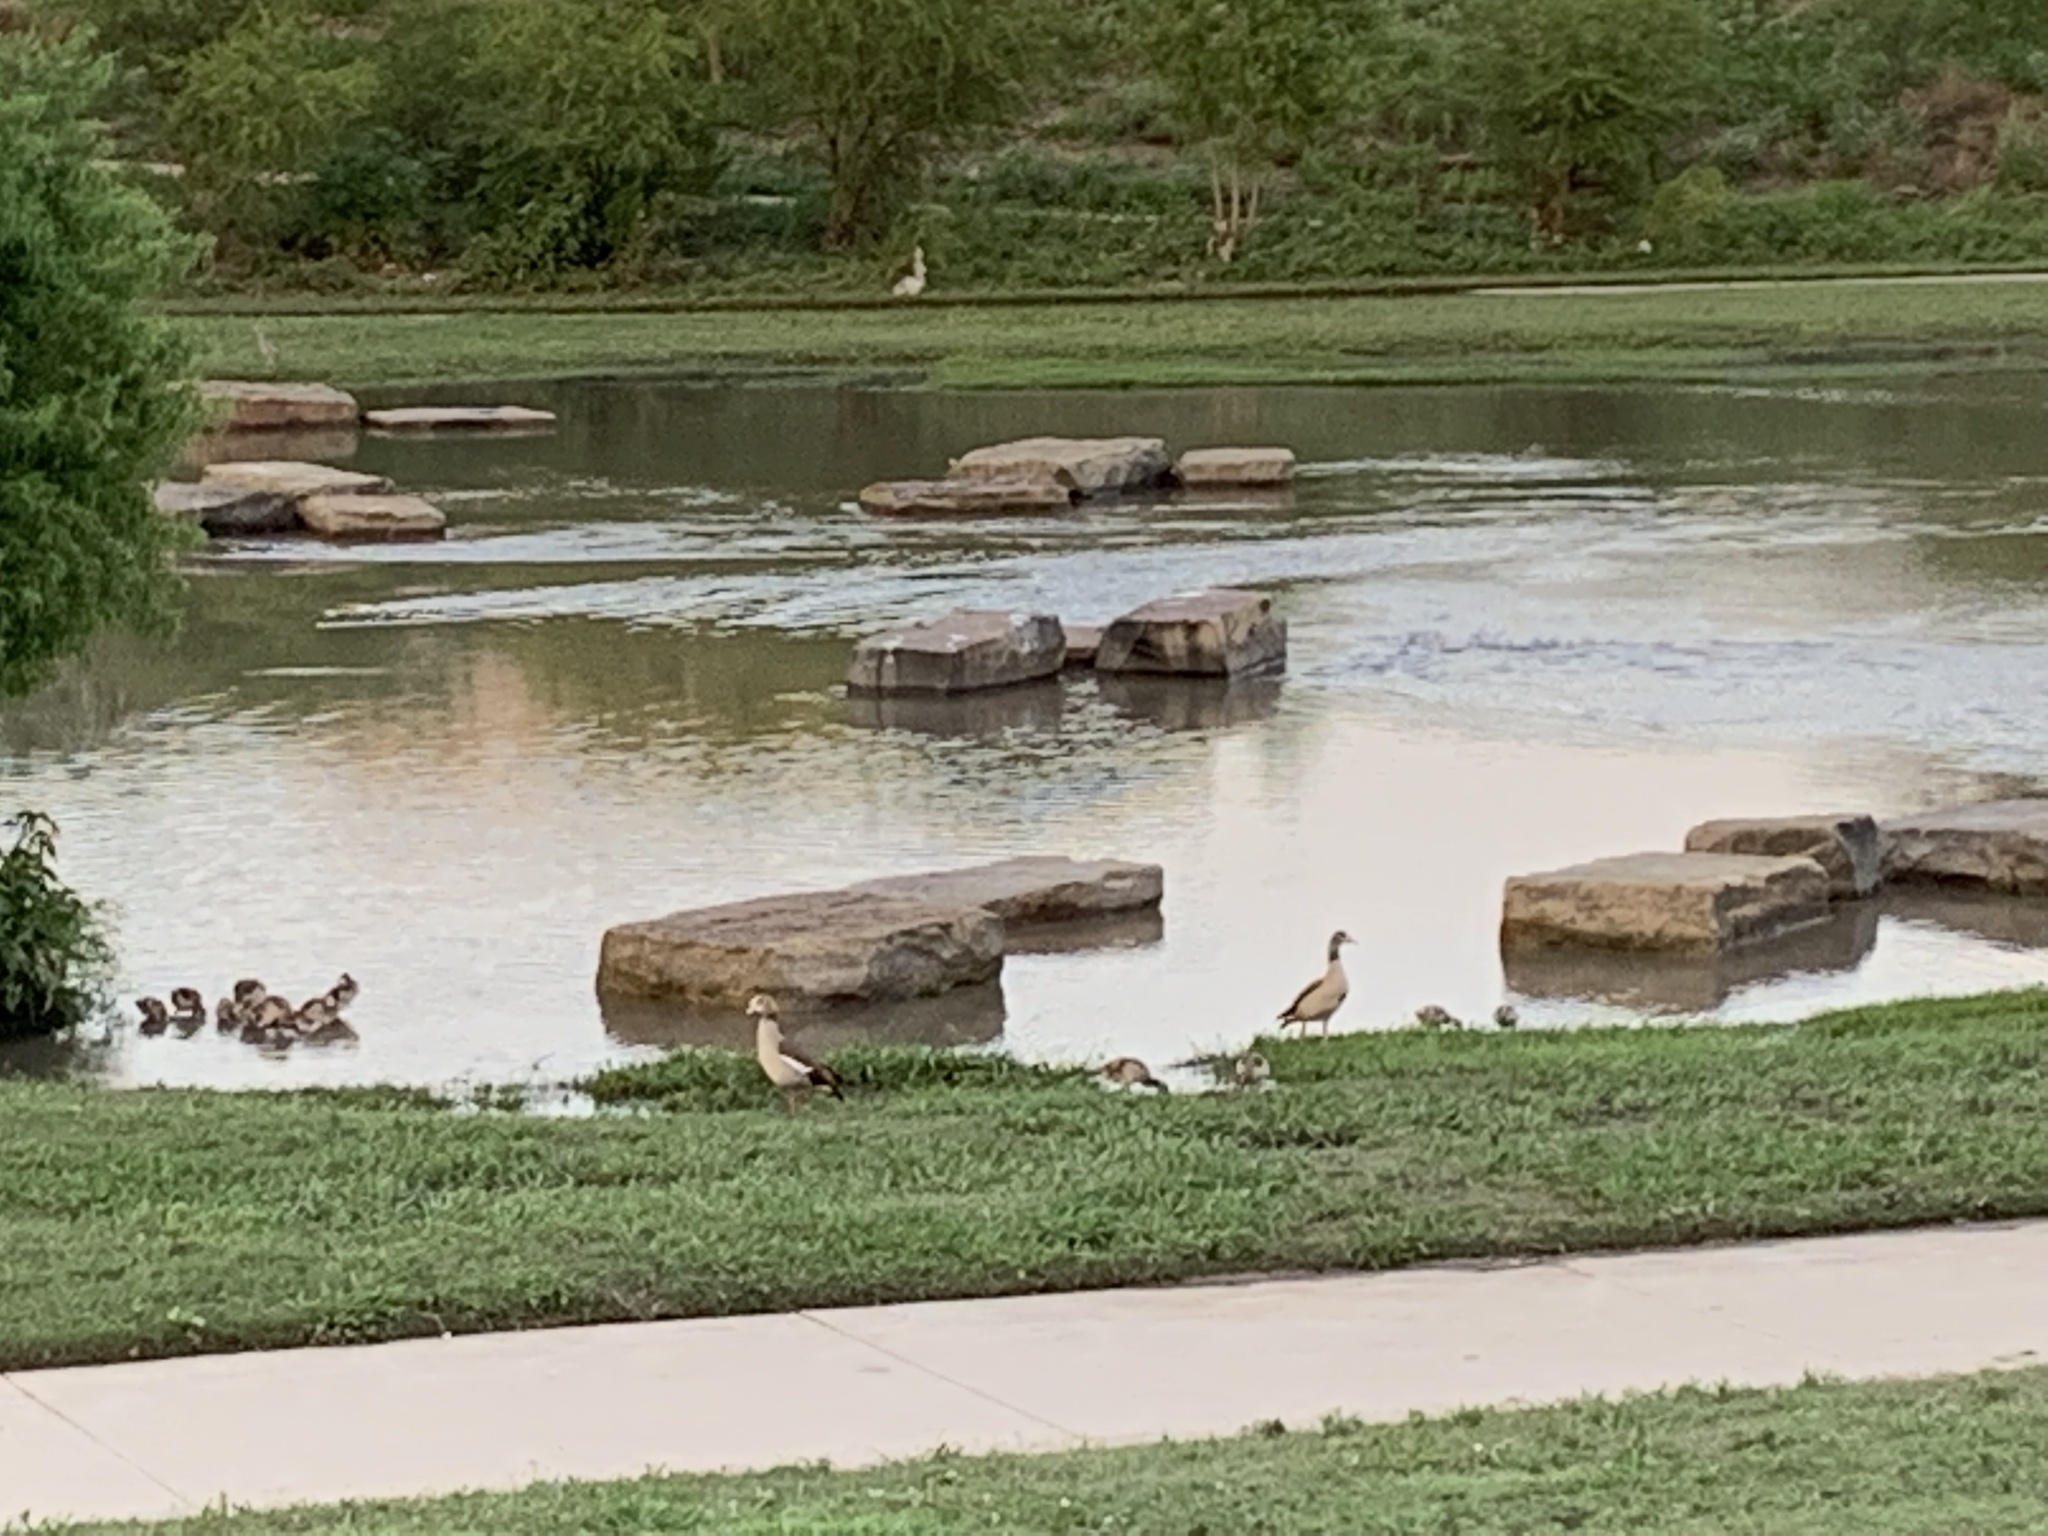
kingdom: Animalia
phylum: Chordata
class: Aves
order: Anseriformes
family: Anatidae
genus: Alopochen
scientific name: Alopochen aegyptiaca
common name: Egyptian goose
